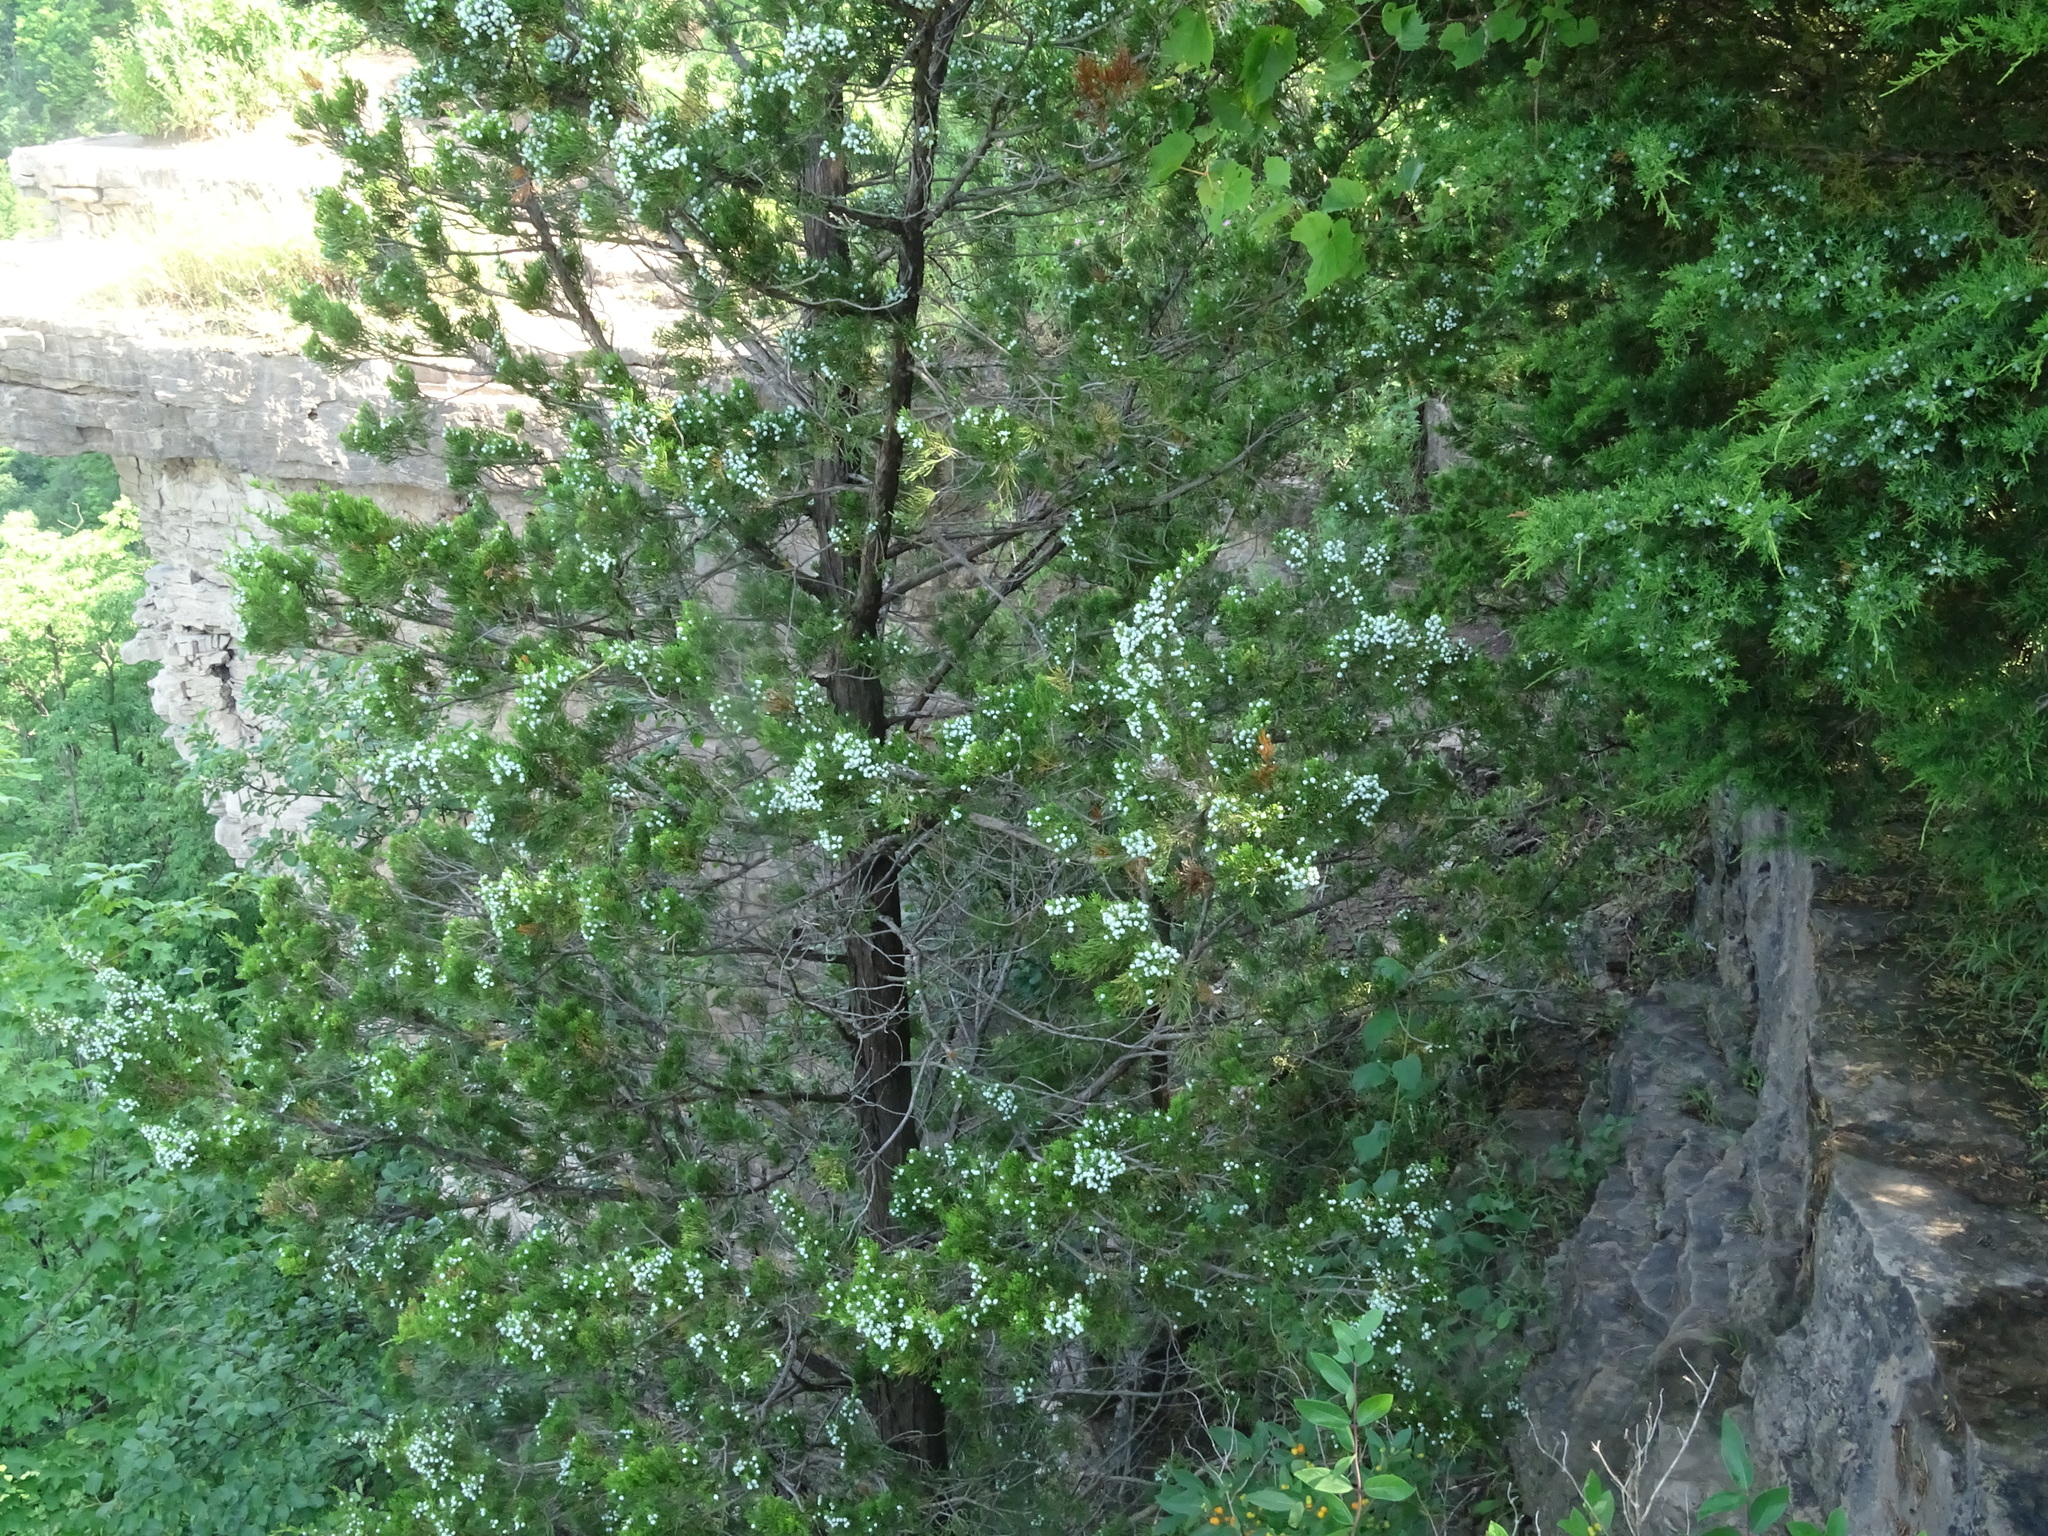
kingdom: Plantae
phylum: Tracheophyta
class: Pinopsida
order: Pinales
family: Cupressaceae
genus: Juniperus
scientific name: Juniperus virginiana
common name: Red juniper
